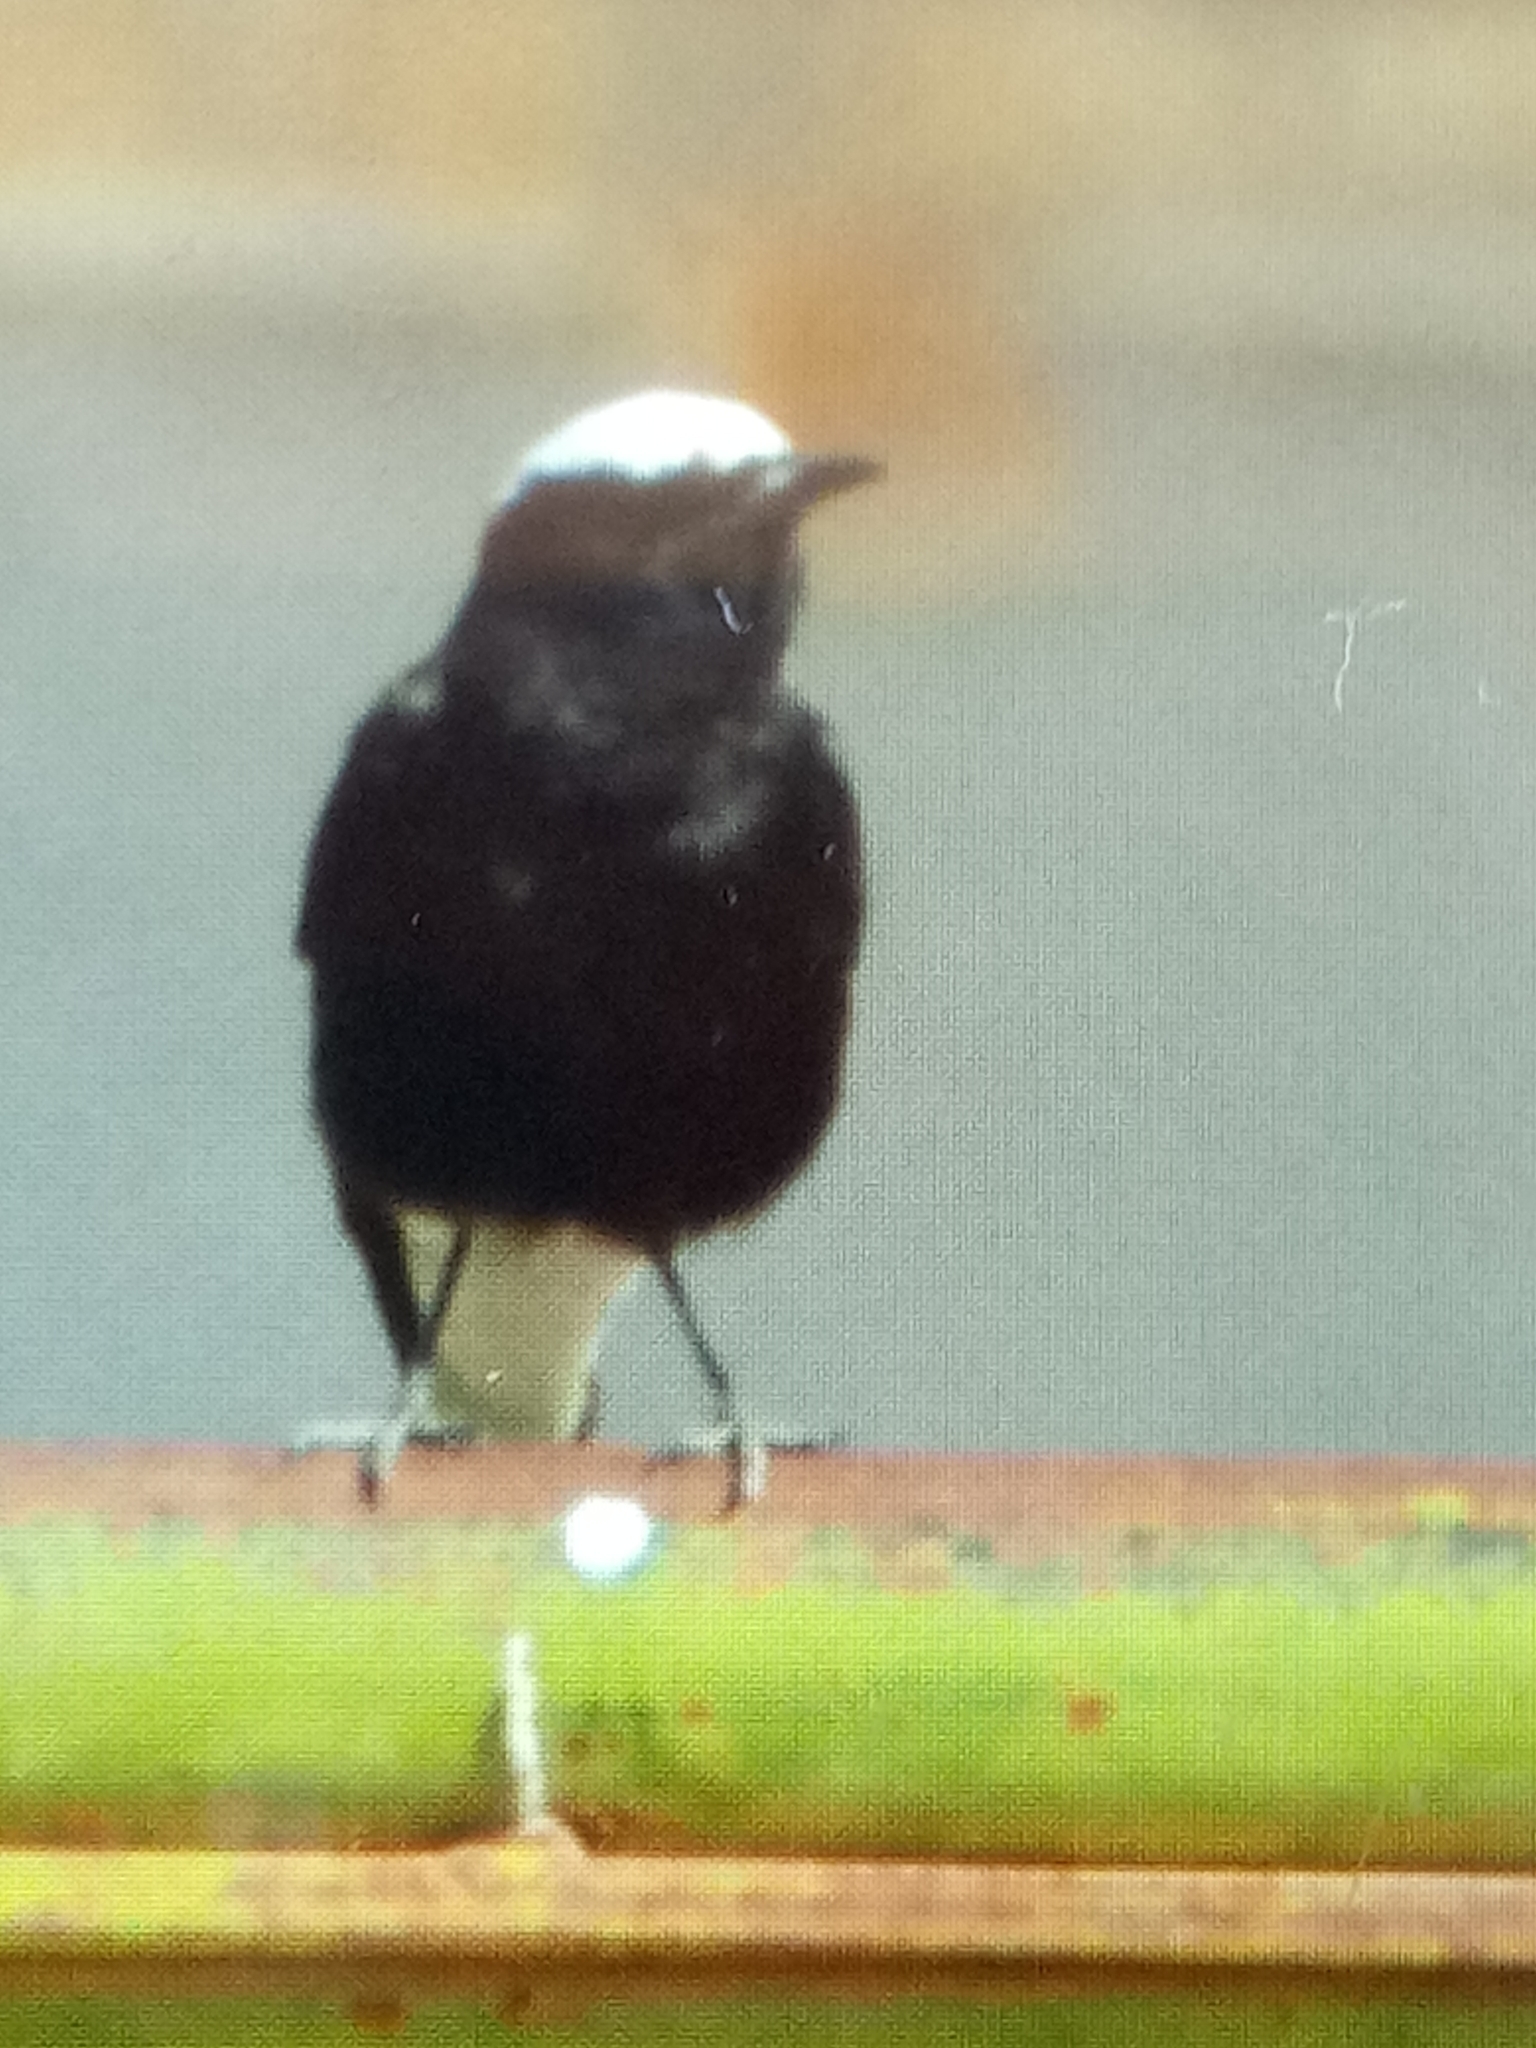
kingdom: Animalia
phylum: Chordata
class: Aves
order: Passeriformes
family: Muscicapidae
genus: Oenanthe
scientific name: Oenanthe leucopyga
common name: White-crowned wheatear
